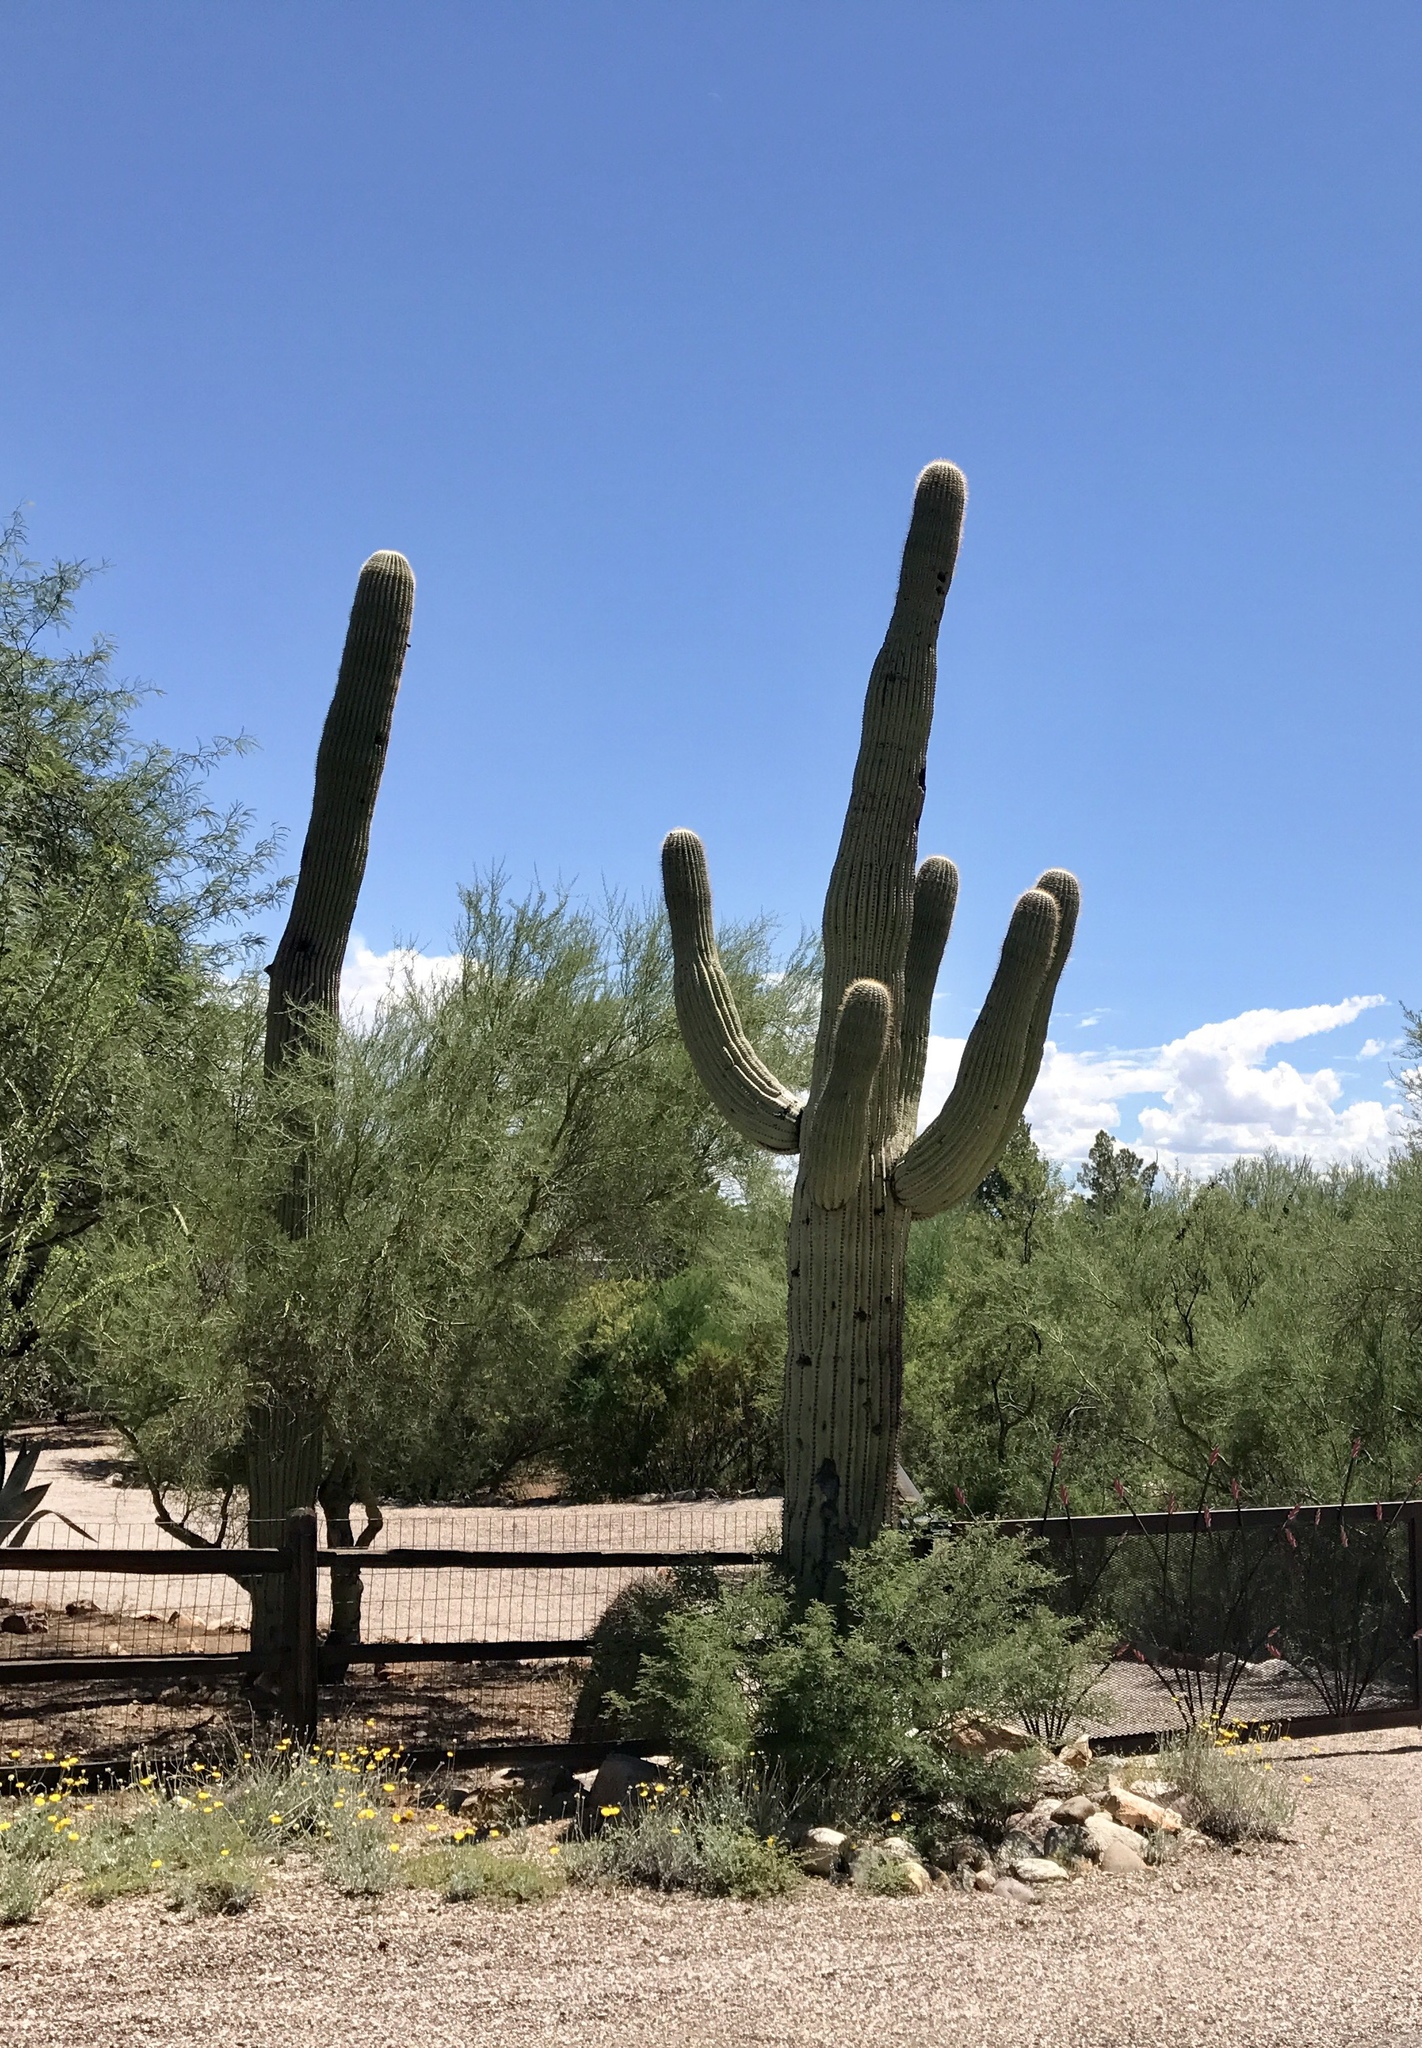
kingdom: Plantae
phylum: Tracheophyta
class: Magnoliopsida
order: Caryophyllales
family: Cactaceae
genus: Carnegiea
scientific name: Carnegiea gigantea
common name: Saguaro
